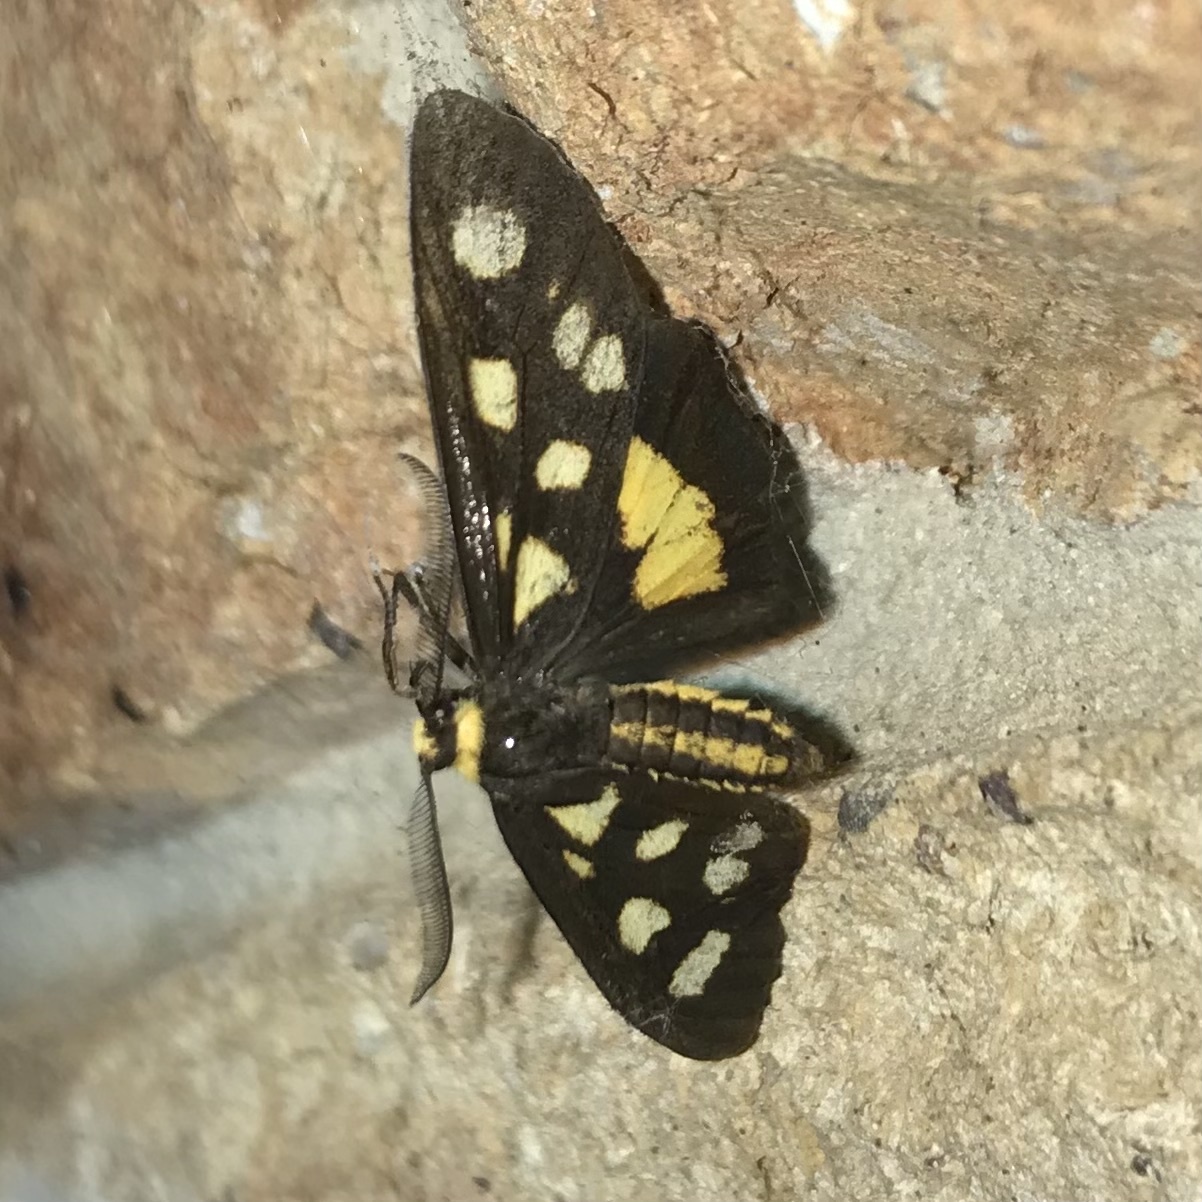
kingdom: Animalia
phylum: Arthropoda
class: Insecta
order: Lepidoptera
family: Erebidae
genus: Asura
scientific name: Asura cervicalis
